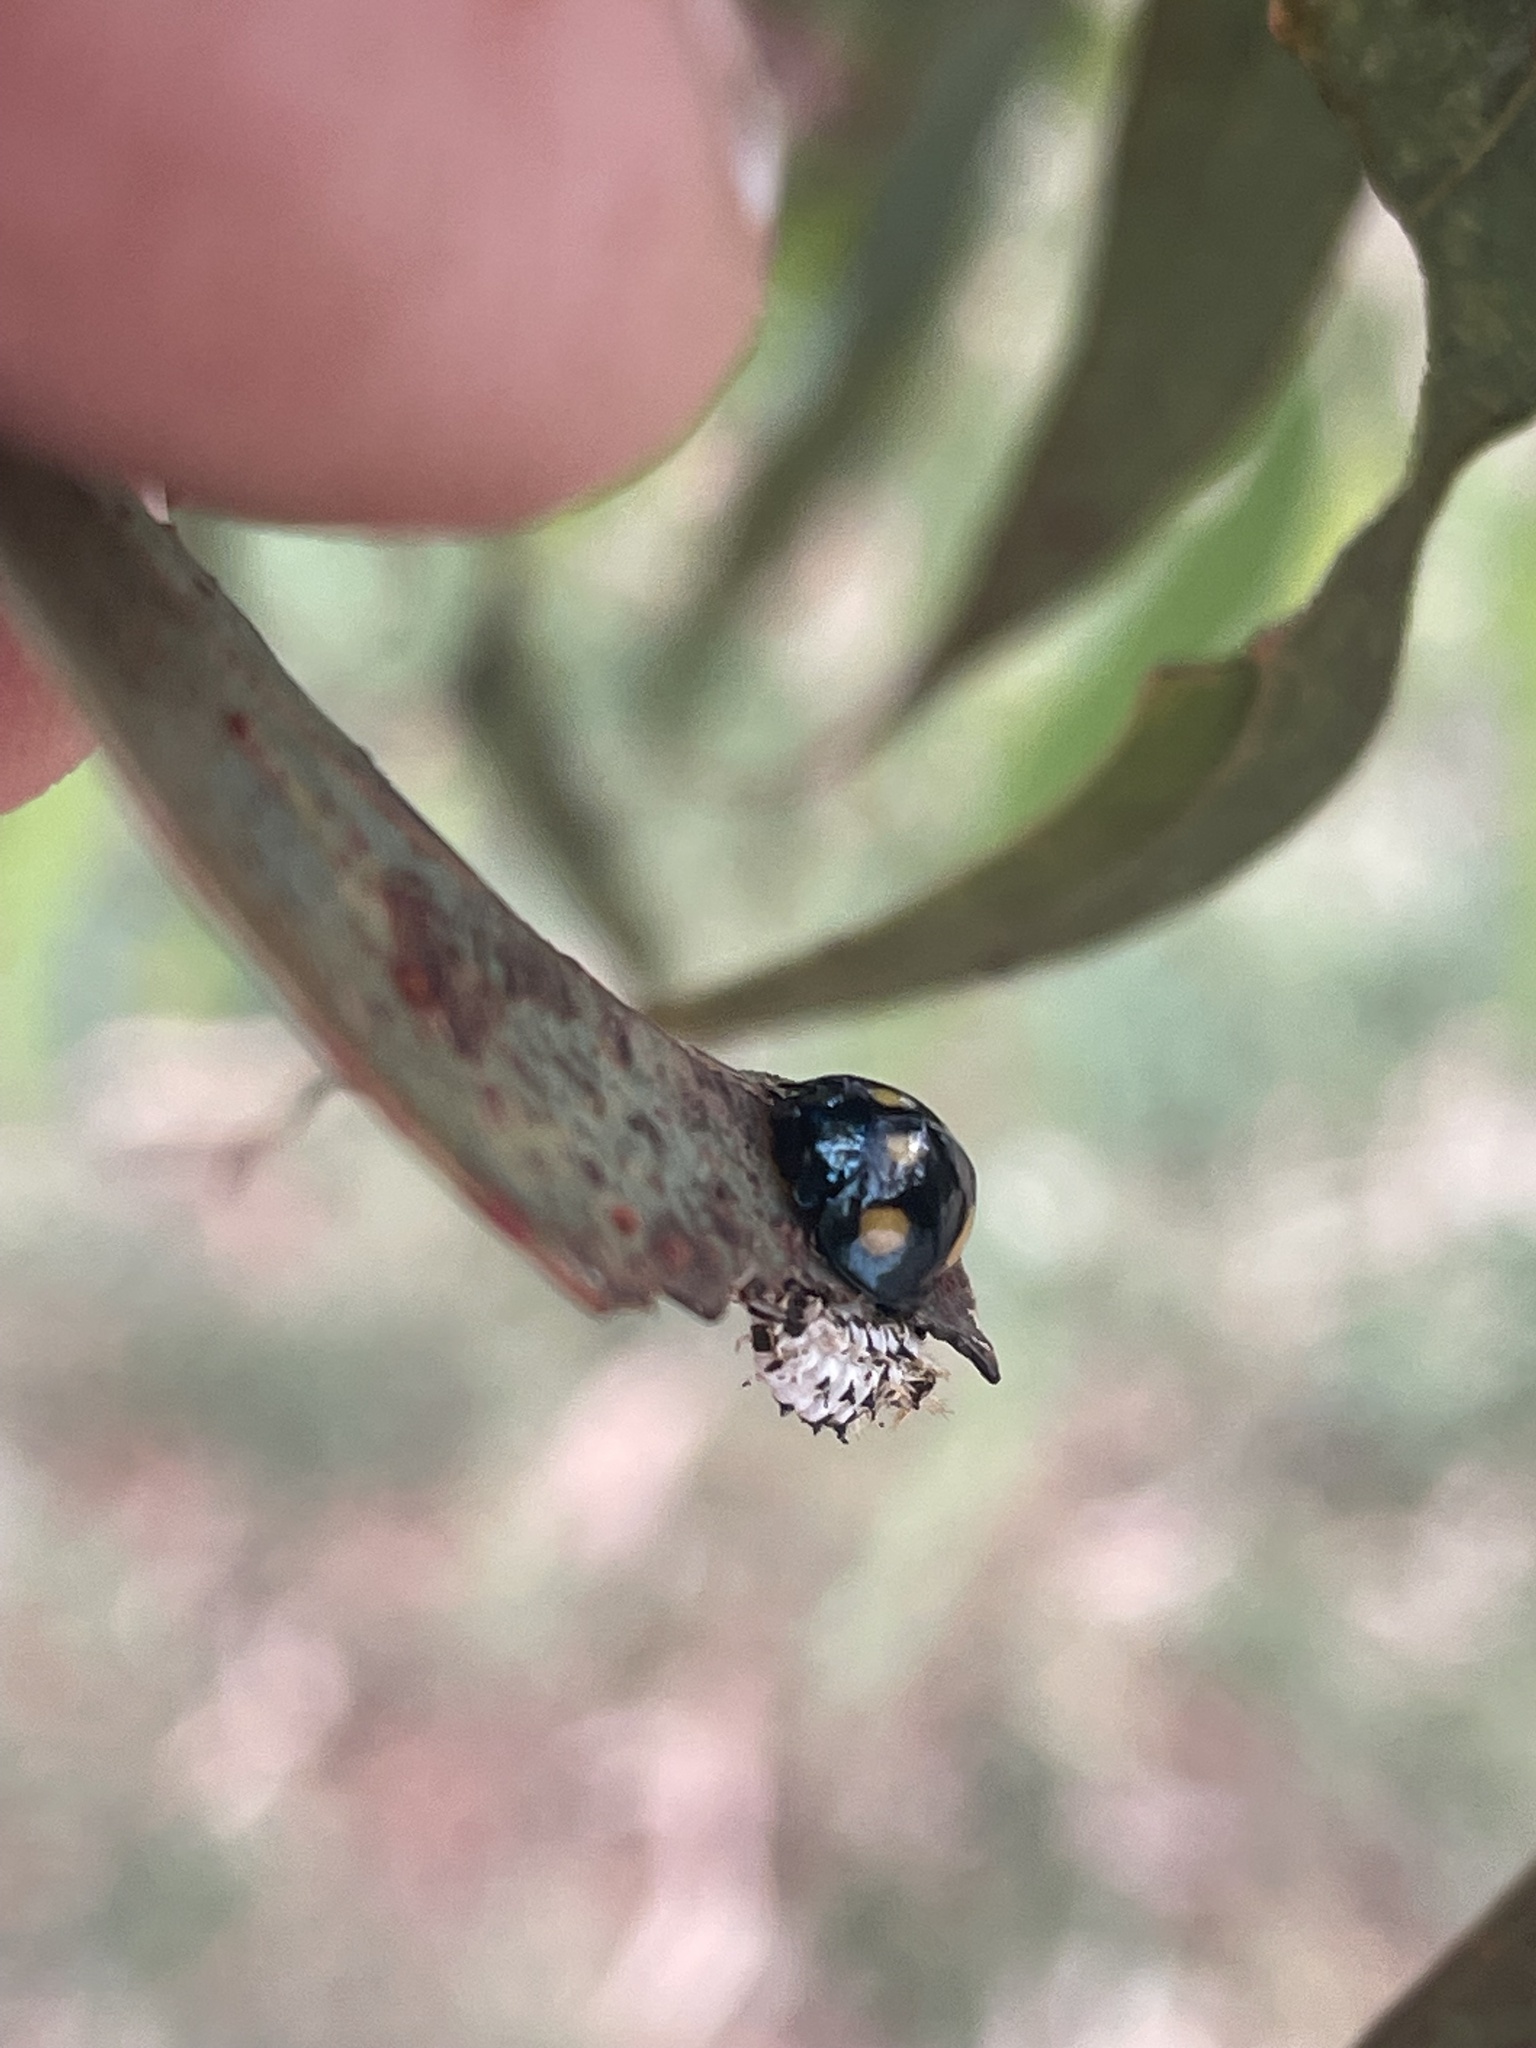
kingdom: Animalia
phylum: Arthropoda
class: Insecta
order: Coleoptera
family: Coccinellidae
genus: Orcus
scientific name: Orcus australasiae
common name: Lady beetle
